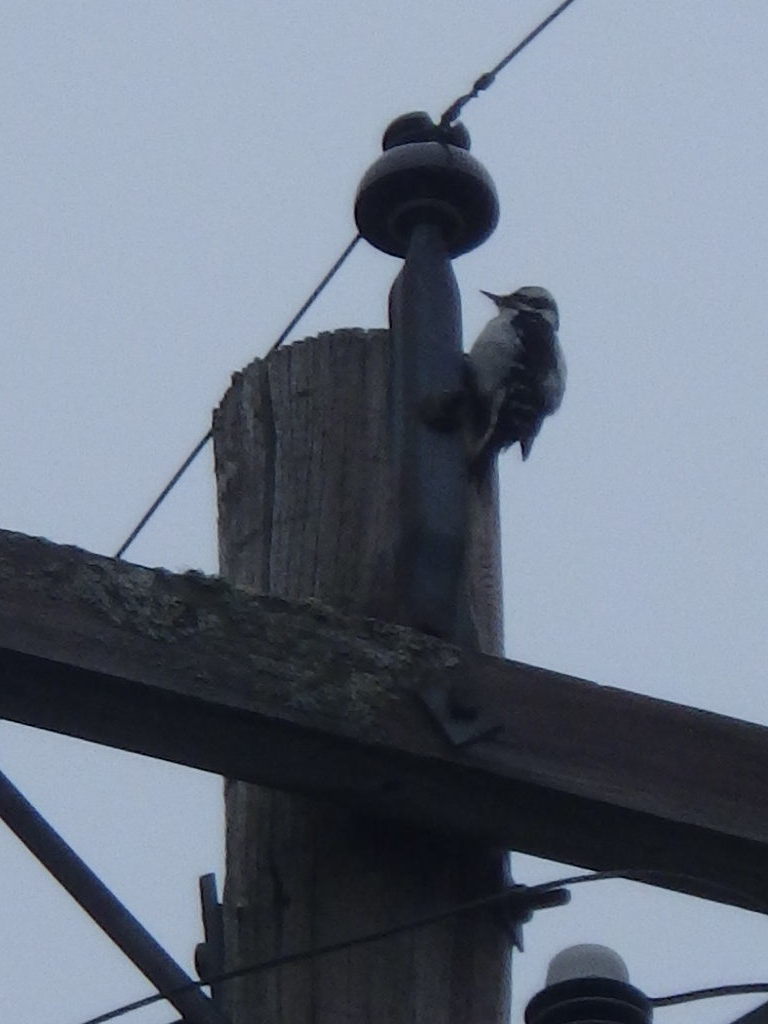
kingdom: Animalia
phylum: Chordata
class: Aves
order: Piciformes
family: Picidae
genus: Dryobates
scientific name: Dryobates pubescens
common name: Downy woodpecker
